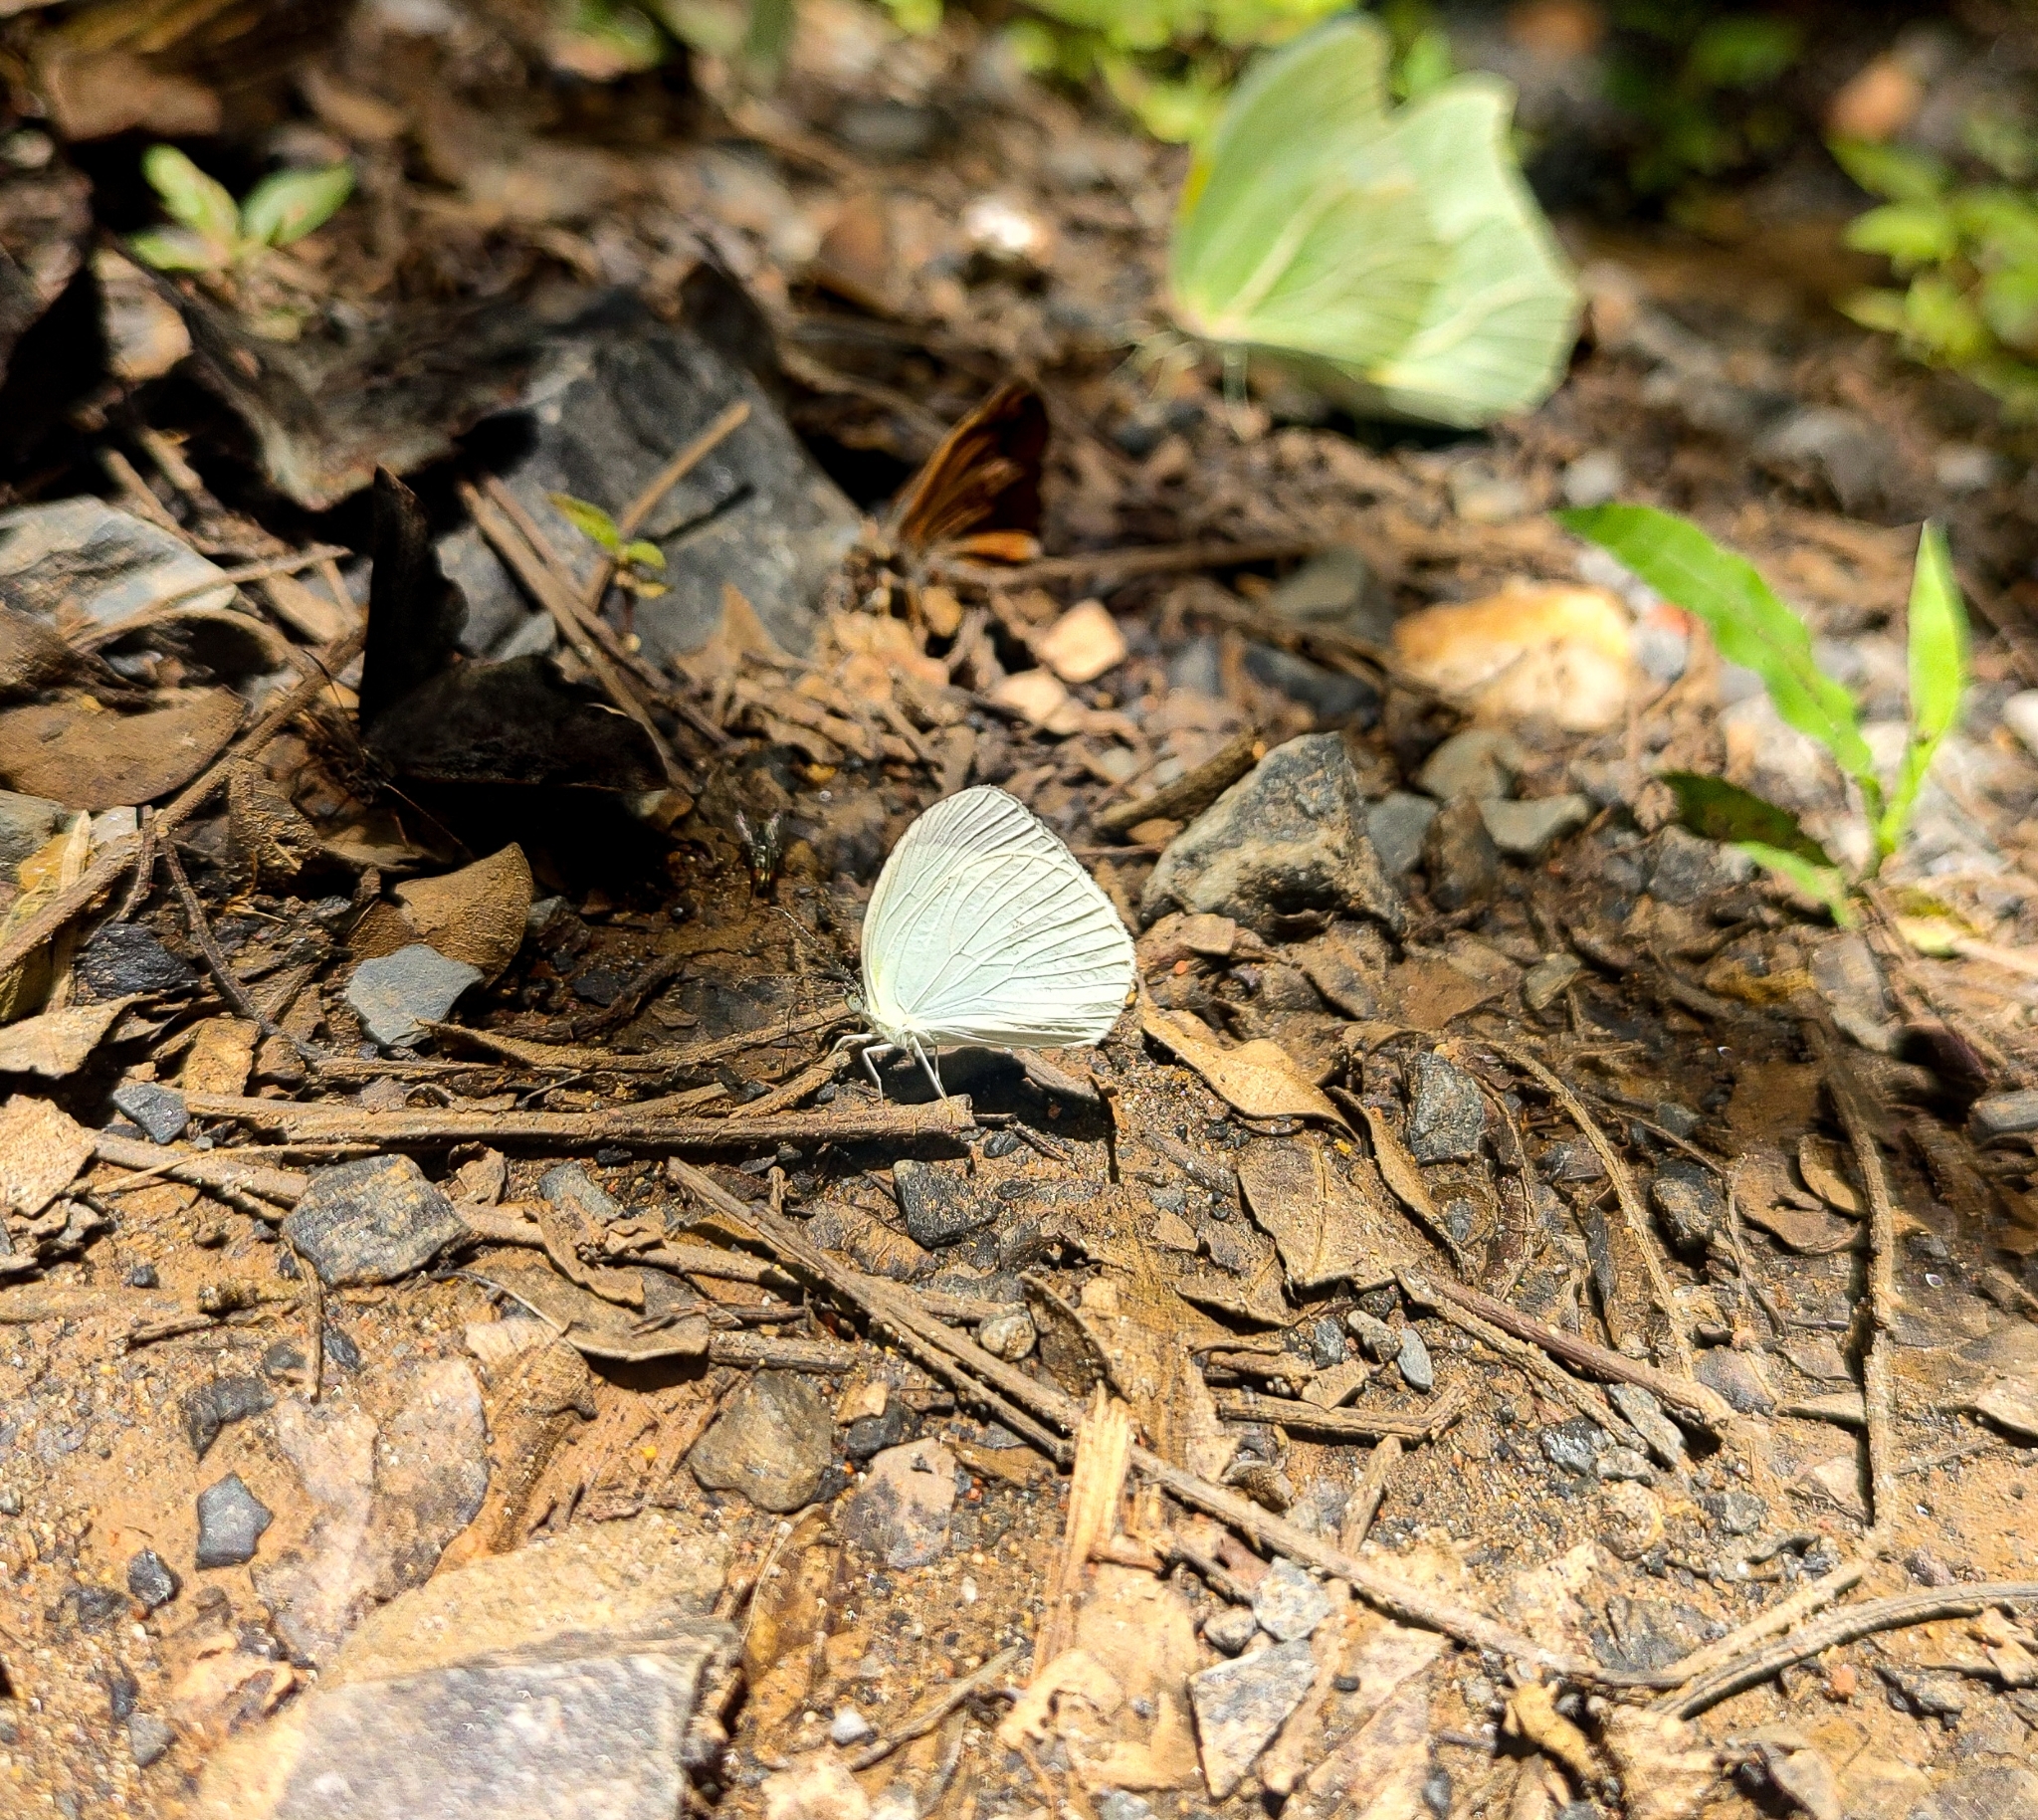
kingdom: Animalia
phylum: Arthropoda
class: Insecta
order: Lepidoptera
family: Pieridae
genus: Abaeis
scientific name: Abaeis albula
